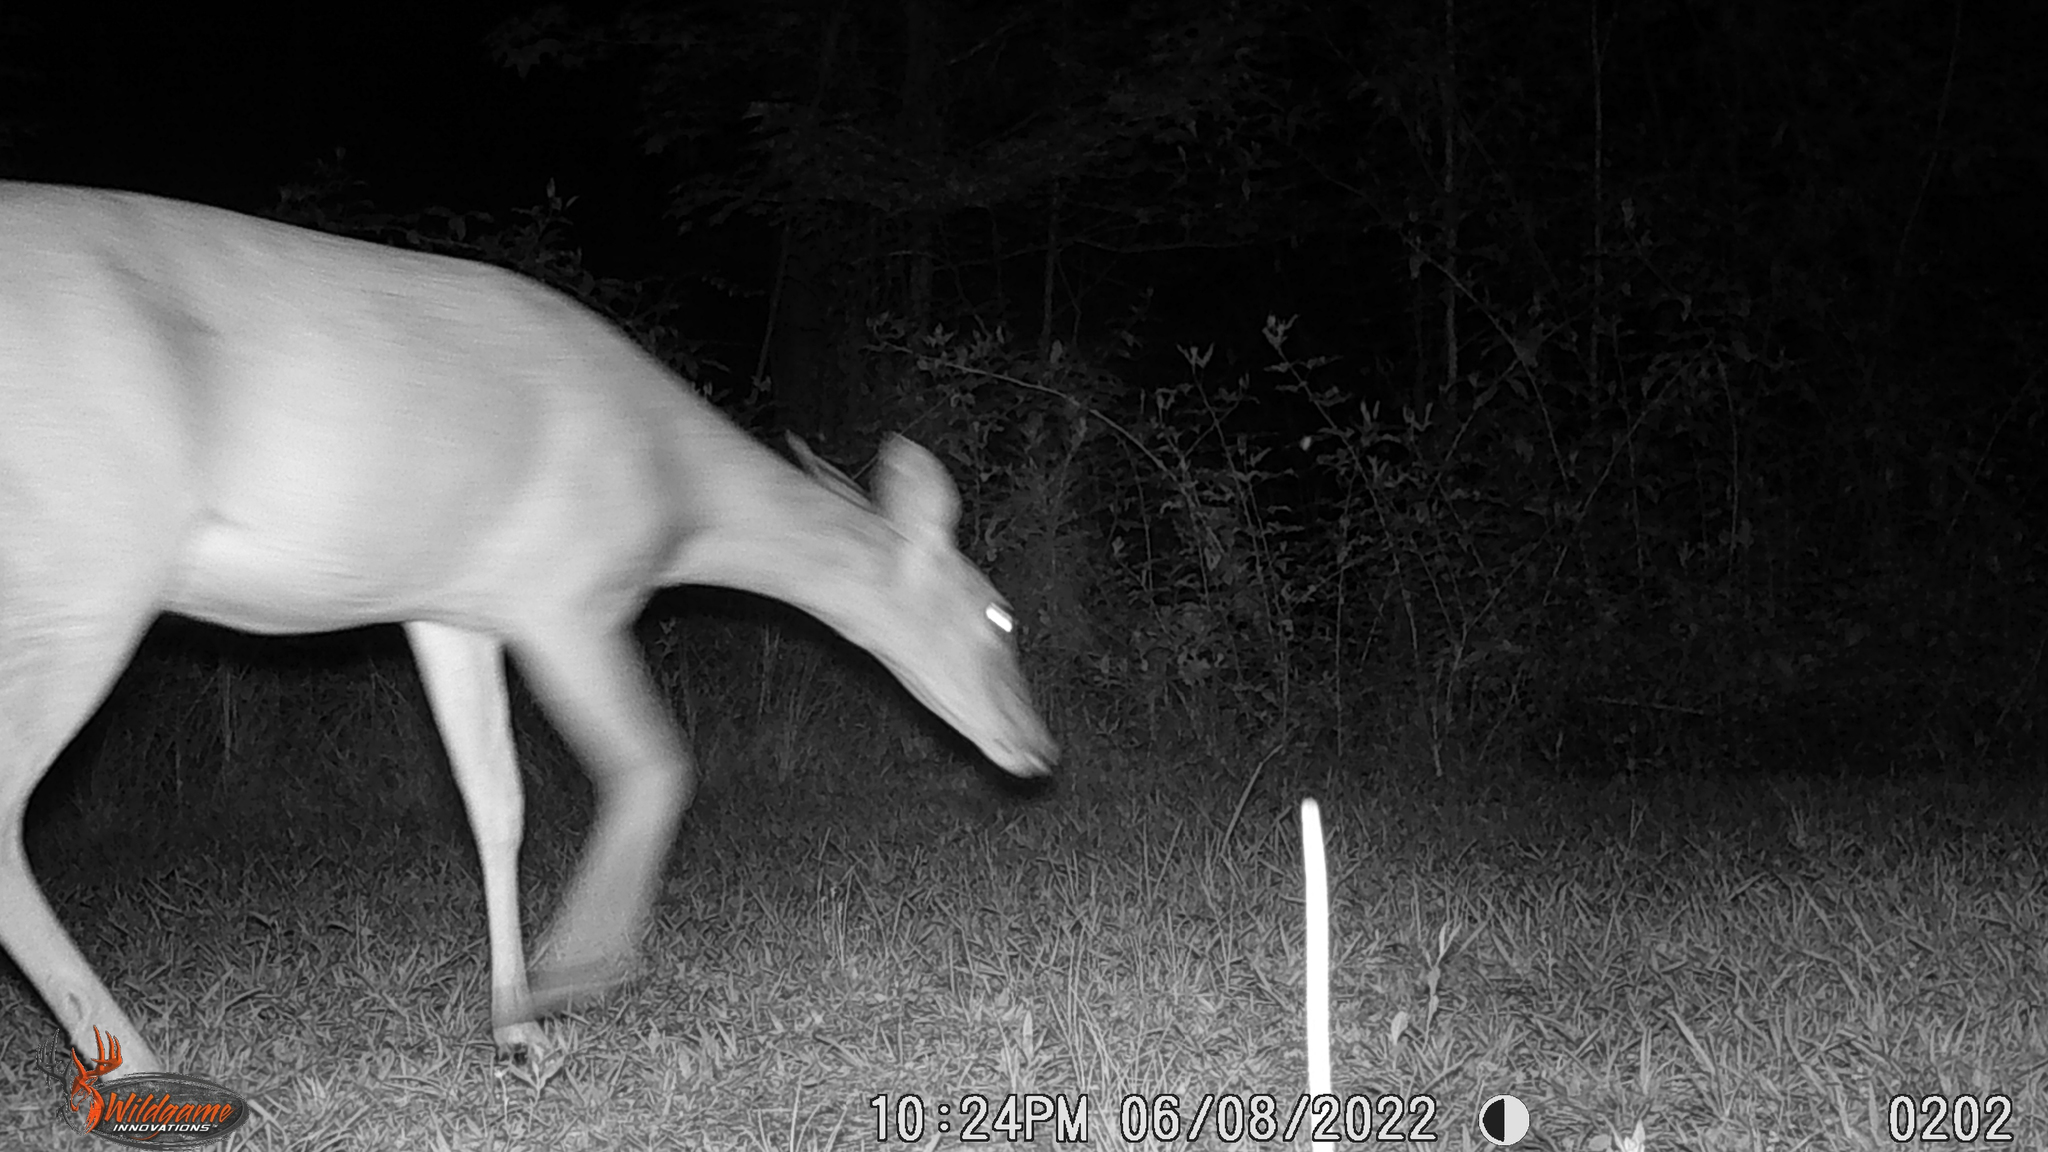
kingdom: Animalia
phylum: Chordata
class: Mammalia
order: Artiodactyla
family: Cervidae
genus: Odocoileus
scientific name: Odocoileus virginianus
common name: White-tailed deer
